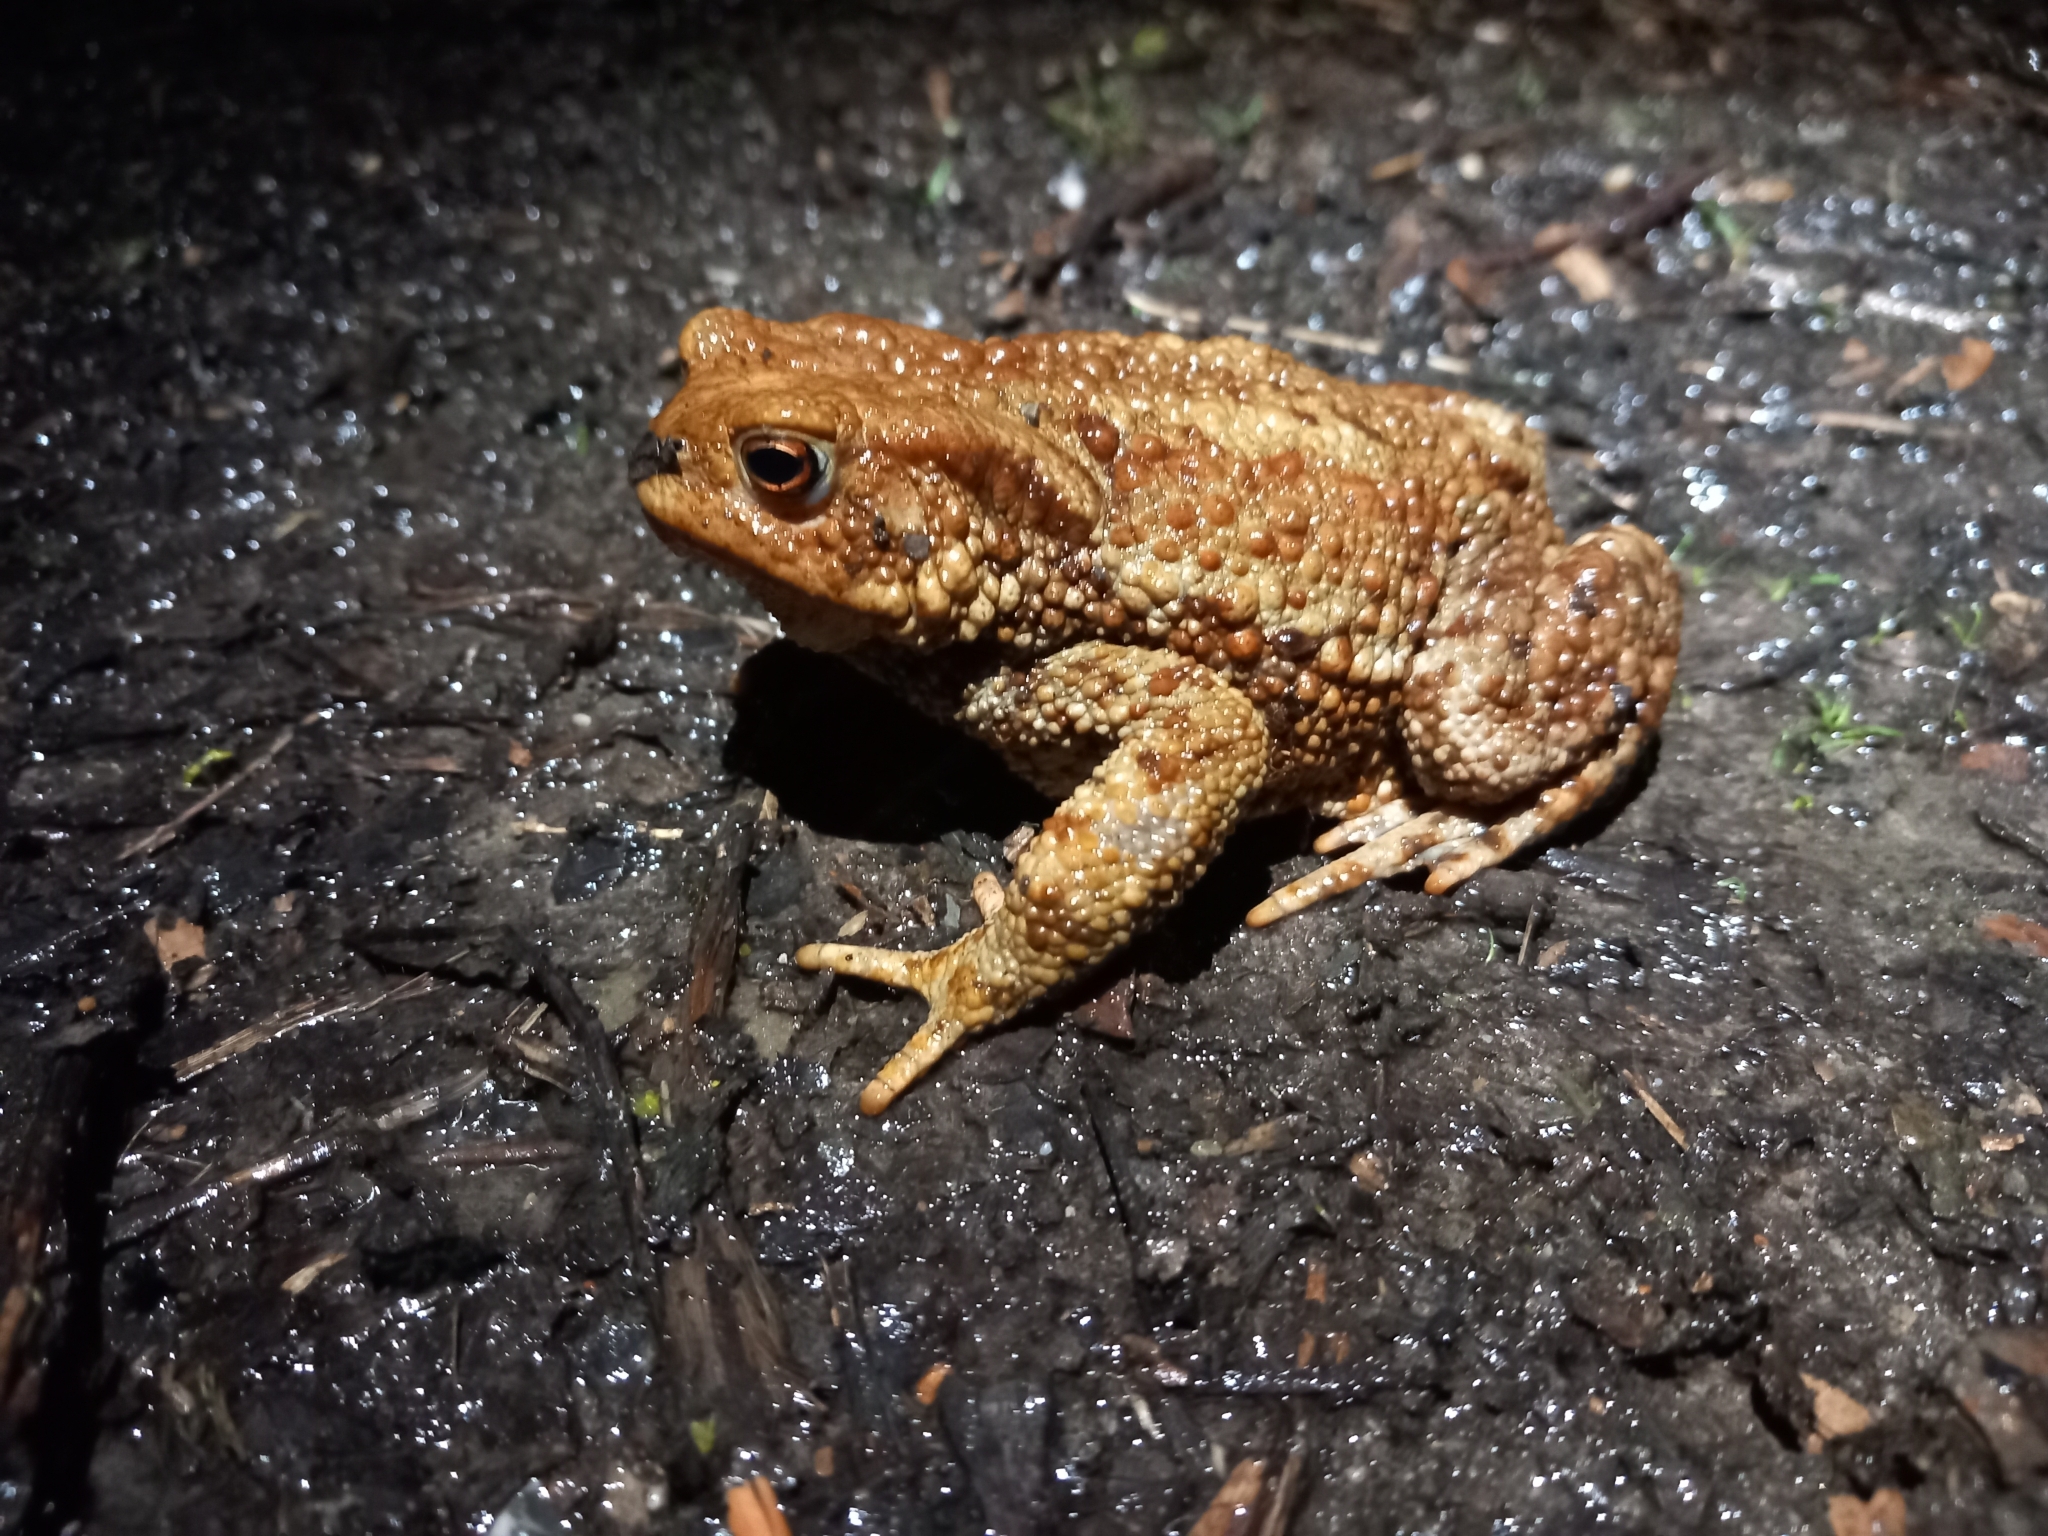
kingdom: Animalia
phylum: Chordata
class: Amphibia
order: Anura
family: Bufonidae
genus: Bufo
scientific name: Bufo bufo
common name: Common toad
